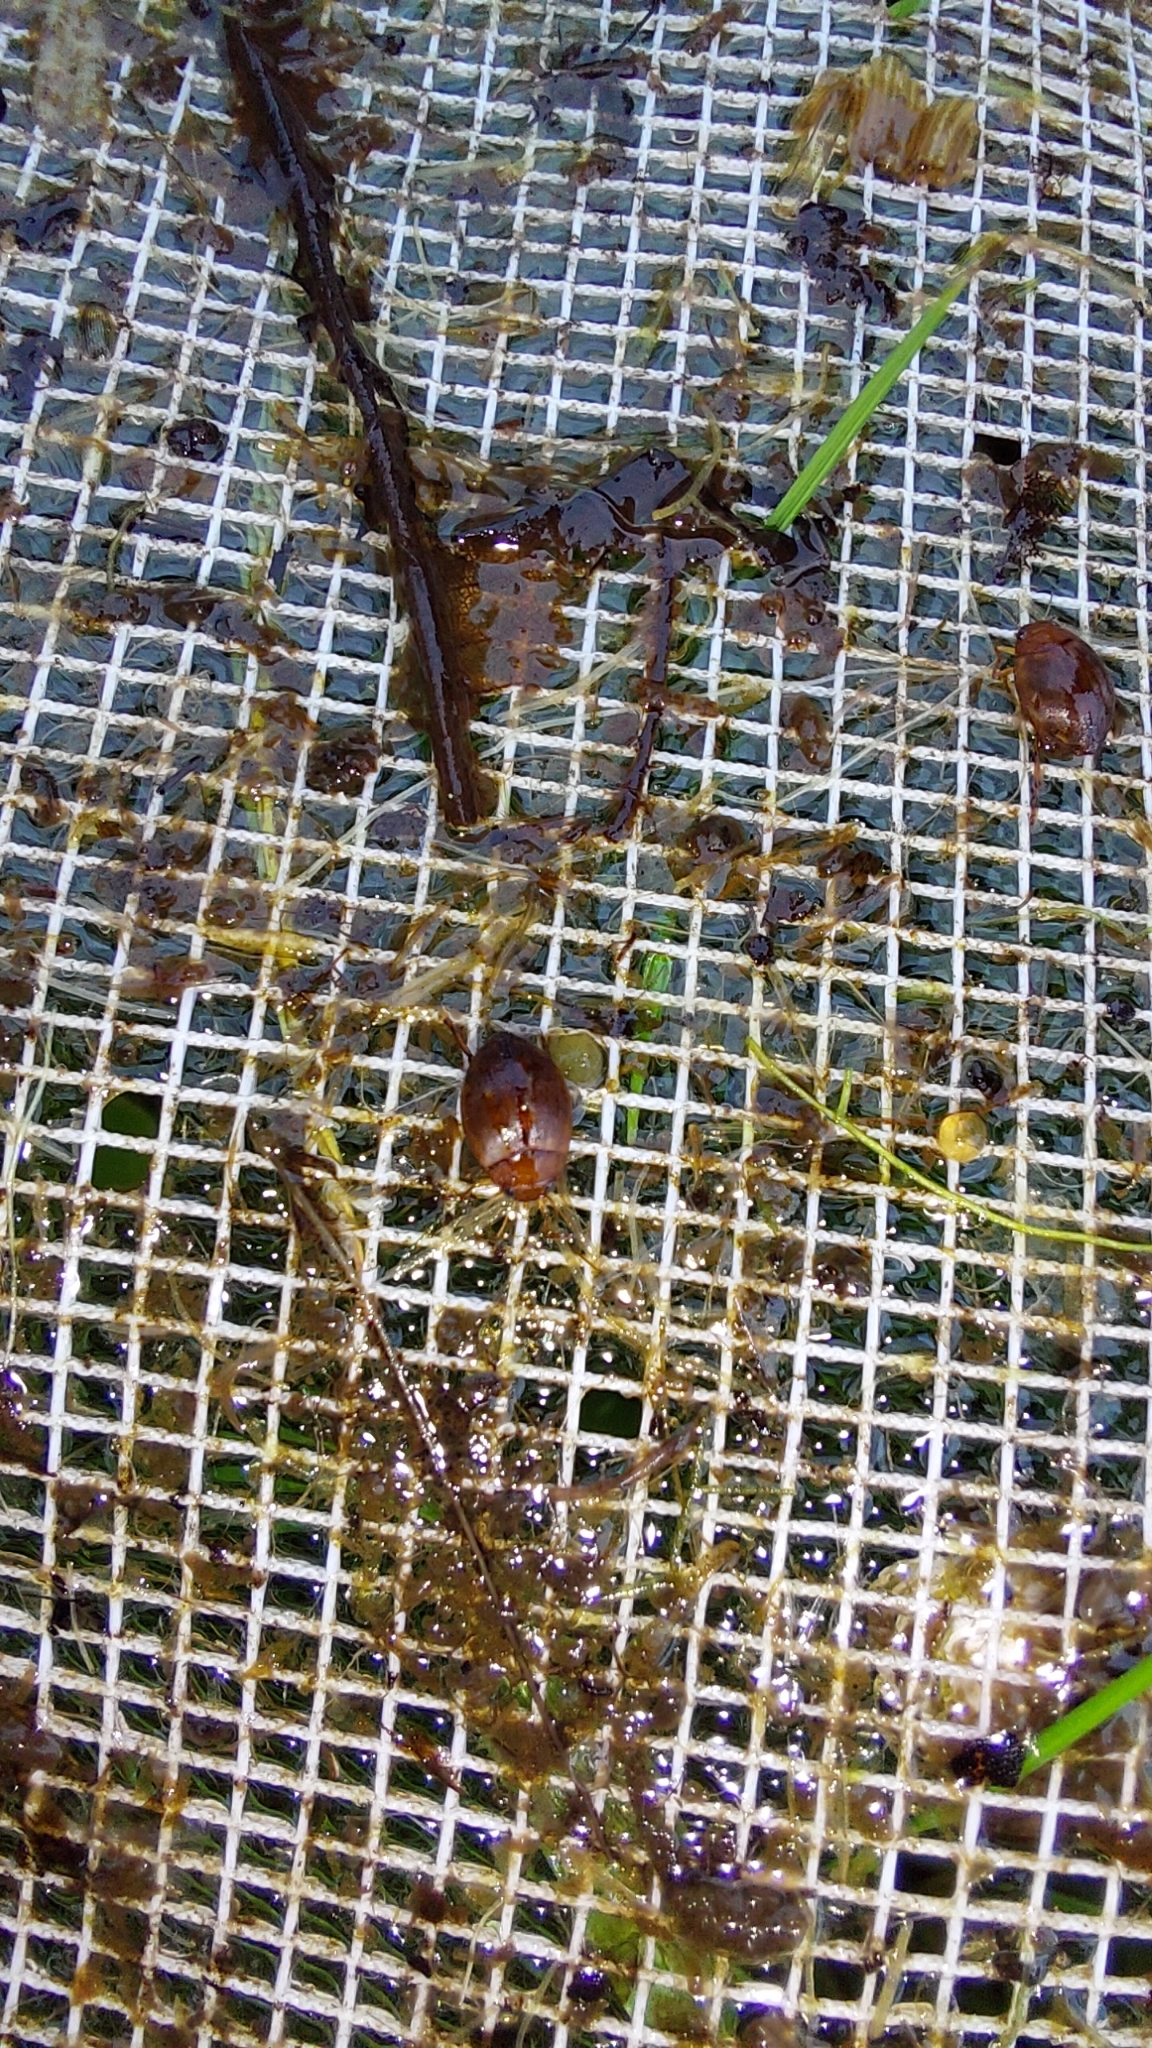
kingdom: Animalia
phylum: Arthropoda
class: Insecta
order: Coleoptera
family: Dytiscidae
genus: Hyphydrus
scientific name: Hyphydrus ovatus
